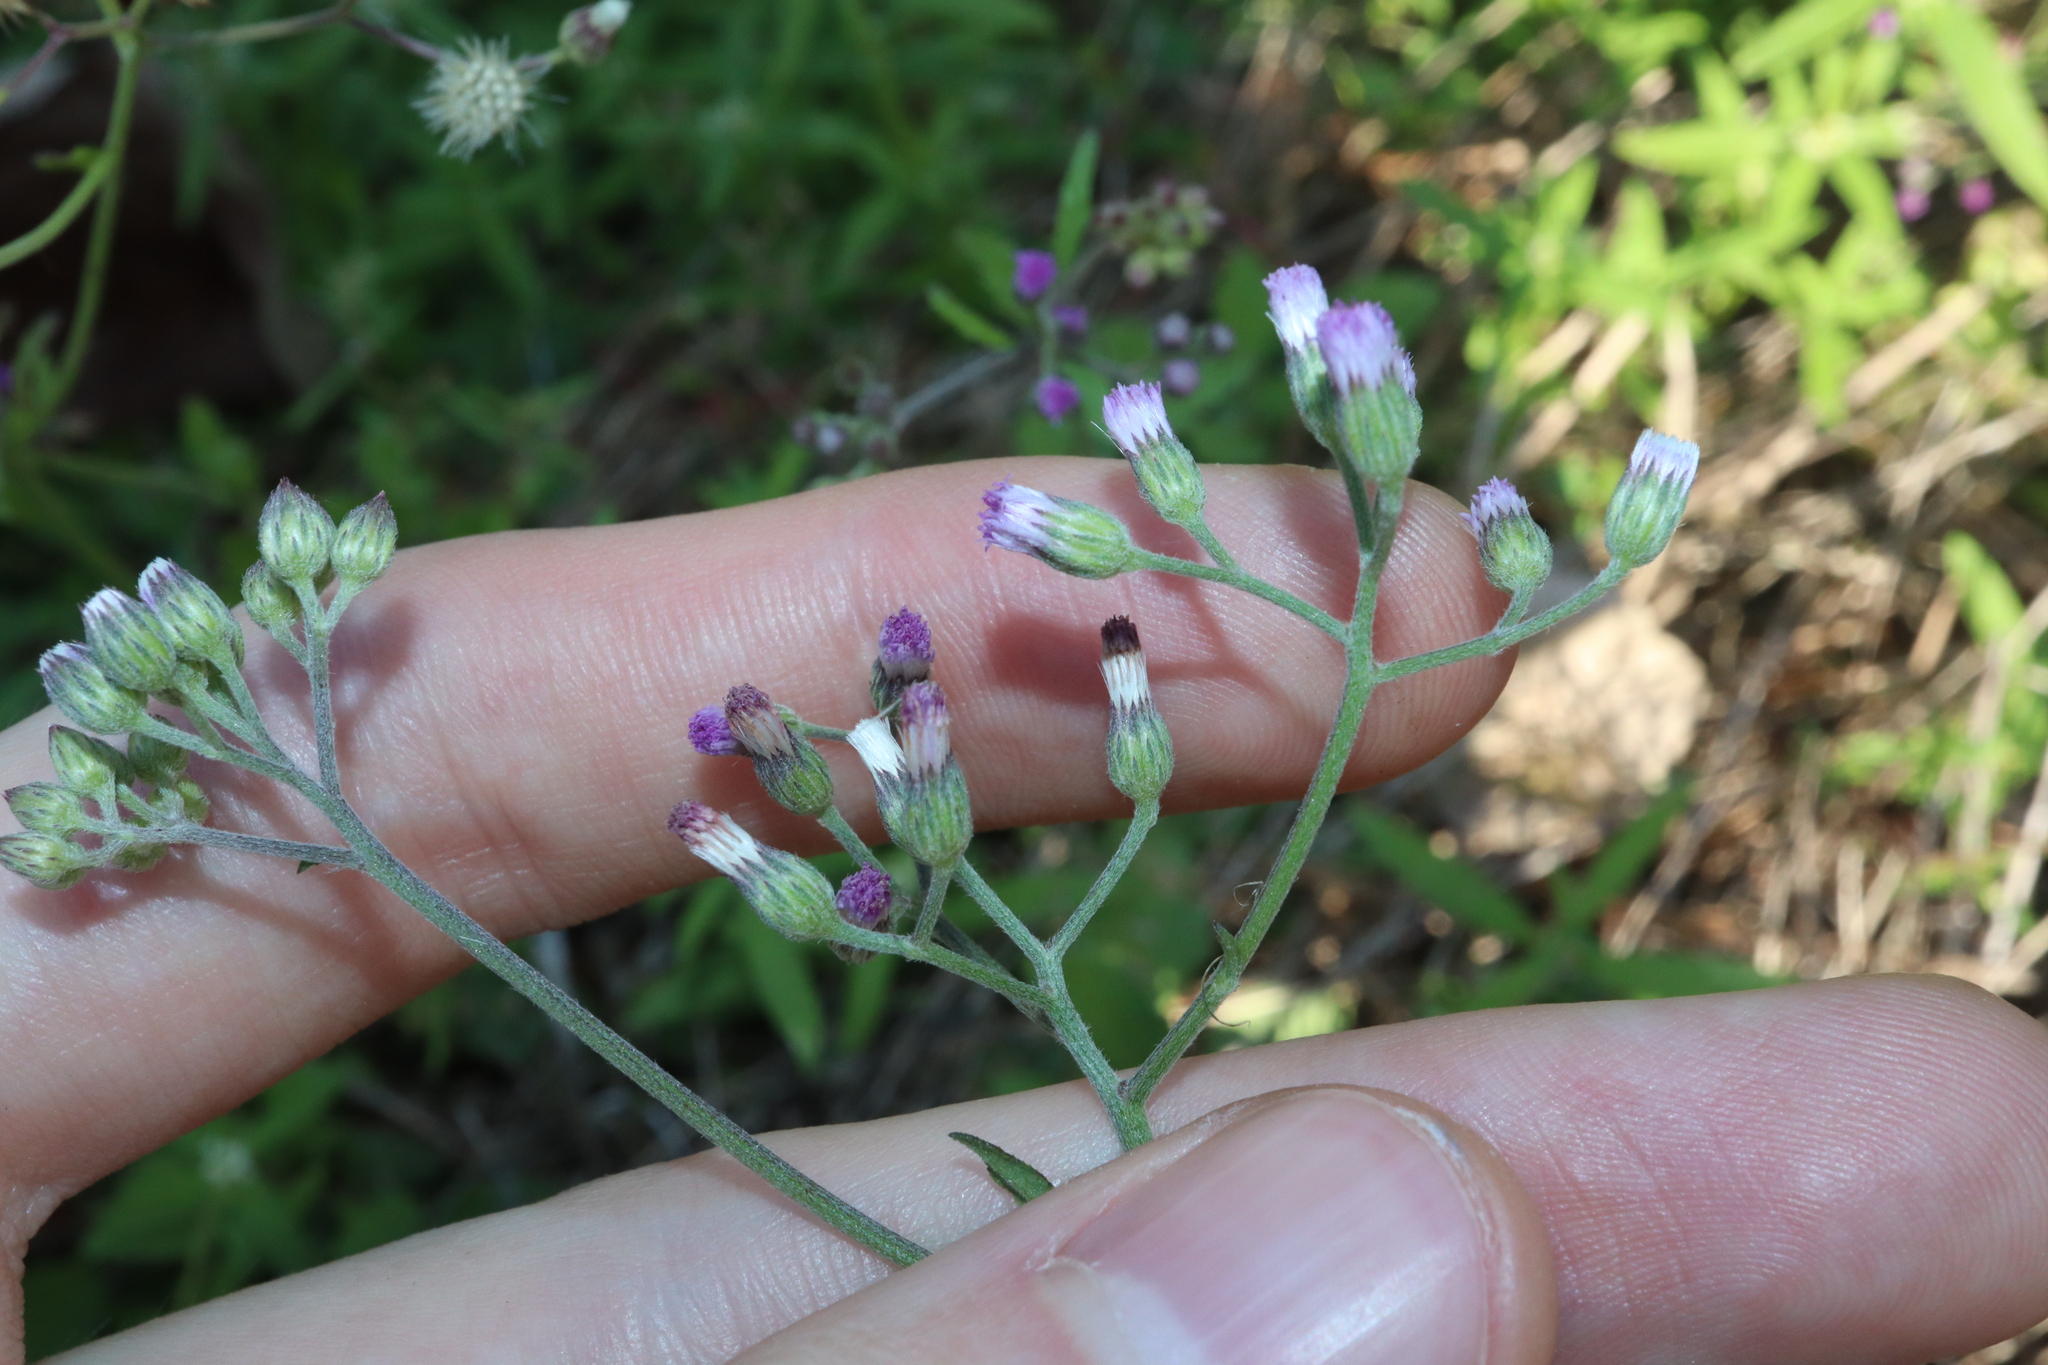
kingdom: Plantae
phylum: Tracheophyta
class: Magnoliopsida
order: Asterales
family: Asteraceae
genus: Cyanthillium
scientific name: Cyanthillium cinereum
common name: Little ironweed
